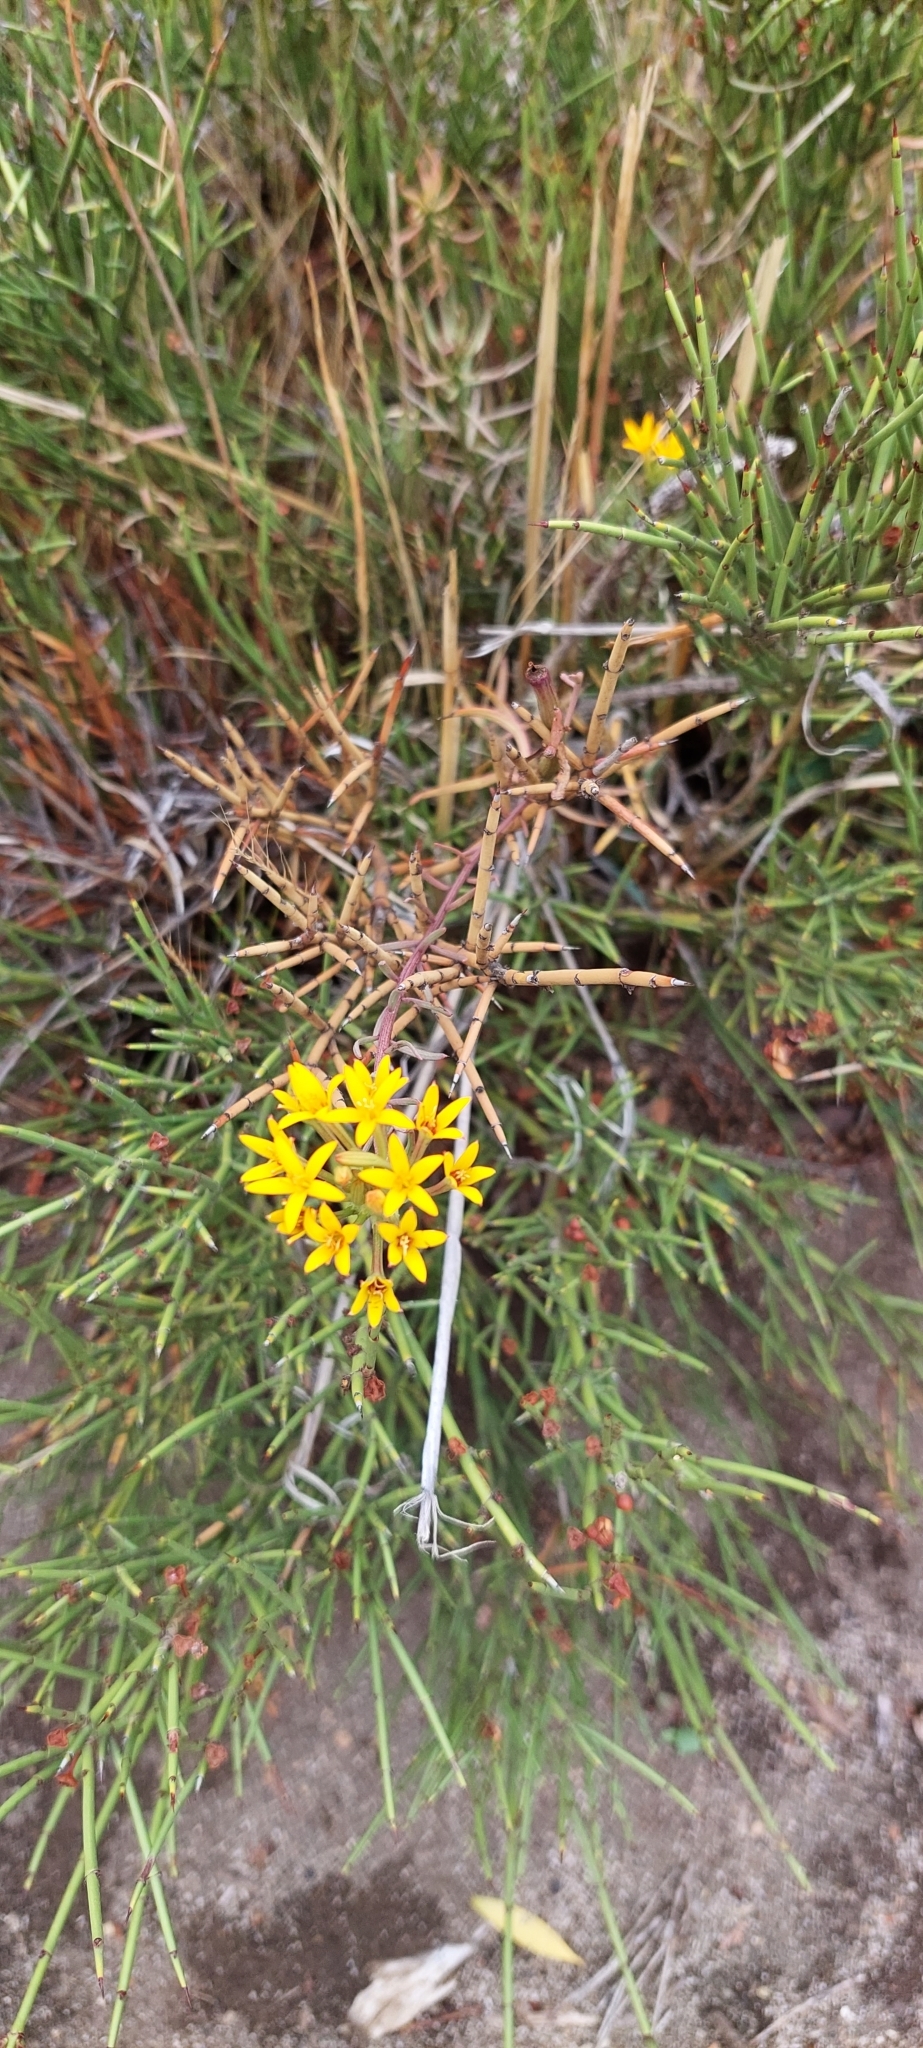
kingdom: Plantae
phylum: Tracheophyta
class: Magnoliopsida
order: Santalales
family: Schoepfiaceae
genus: Quinchamalium
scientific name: Quinchamalium chilense
